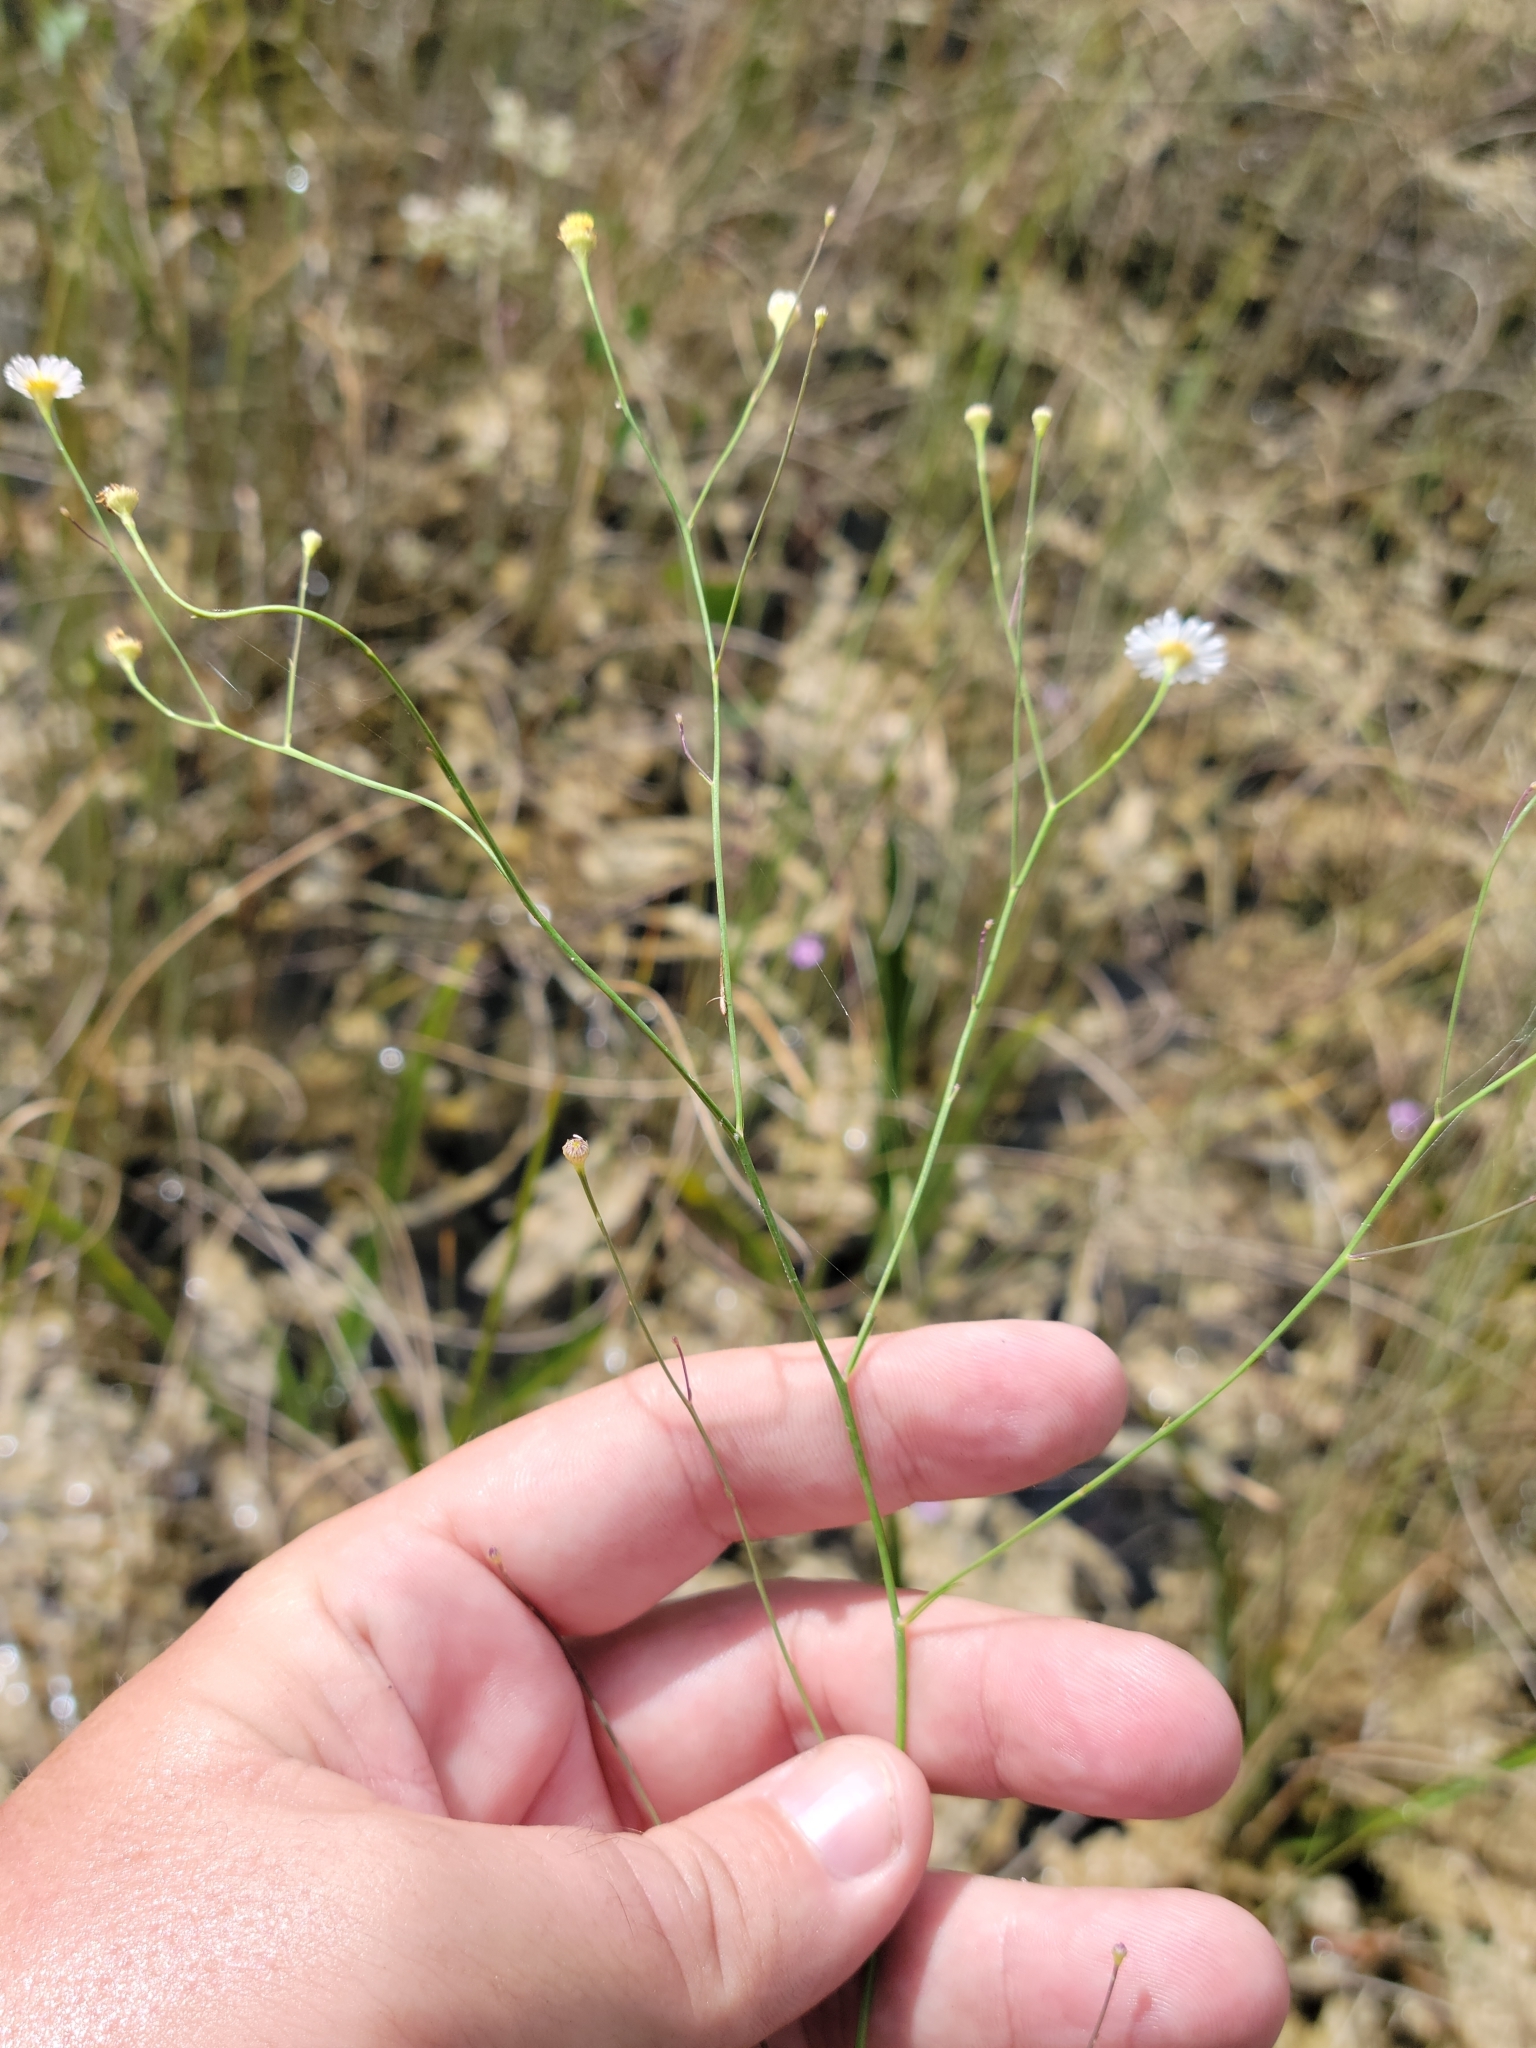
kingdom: Plantae
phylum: Tracheophyta
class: Magnoliopsida
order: Asterales
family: Asteraceae
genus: Boltonia
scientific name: Boltonia diffusa
